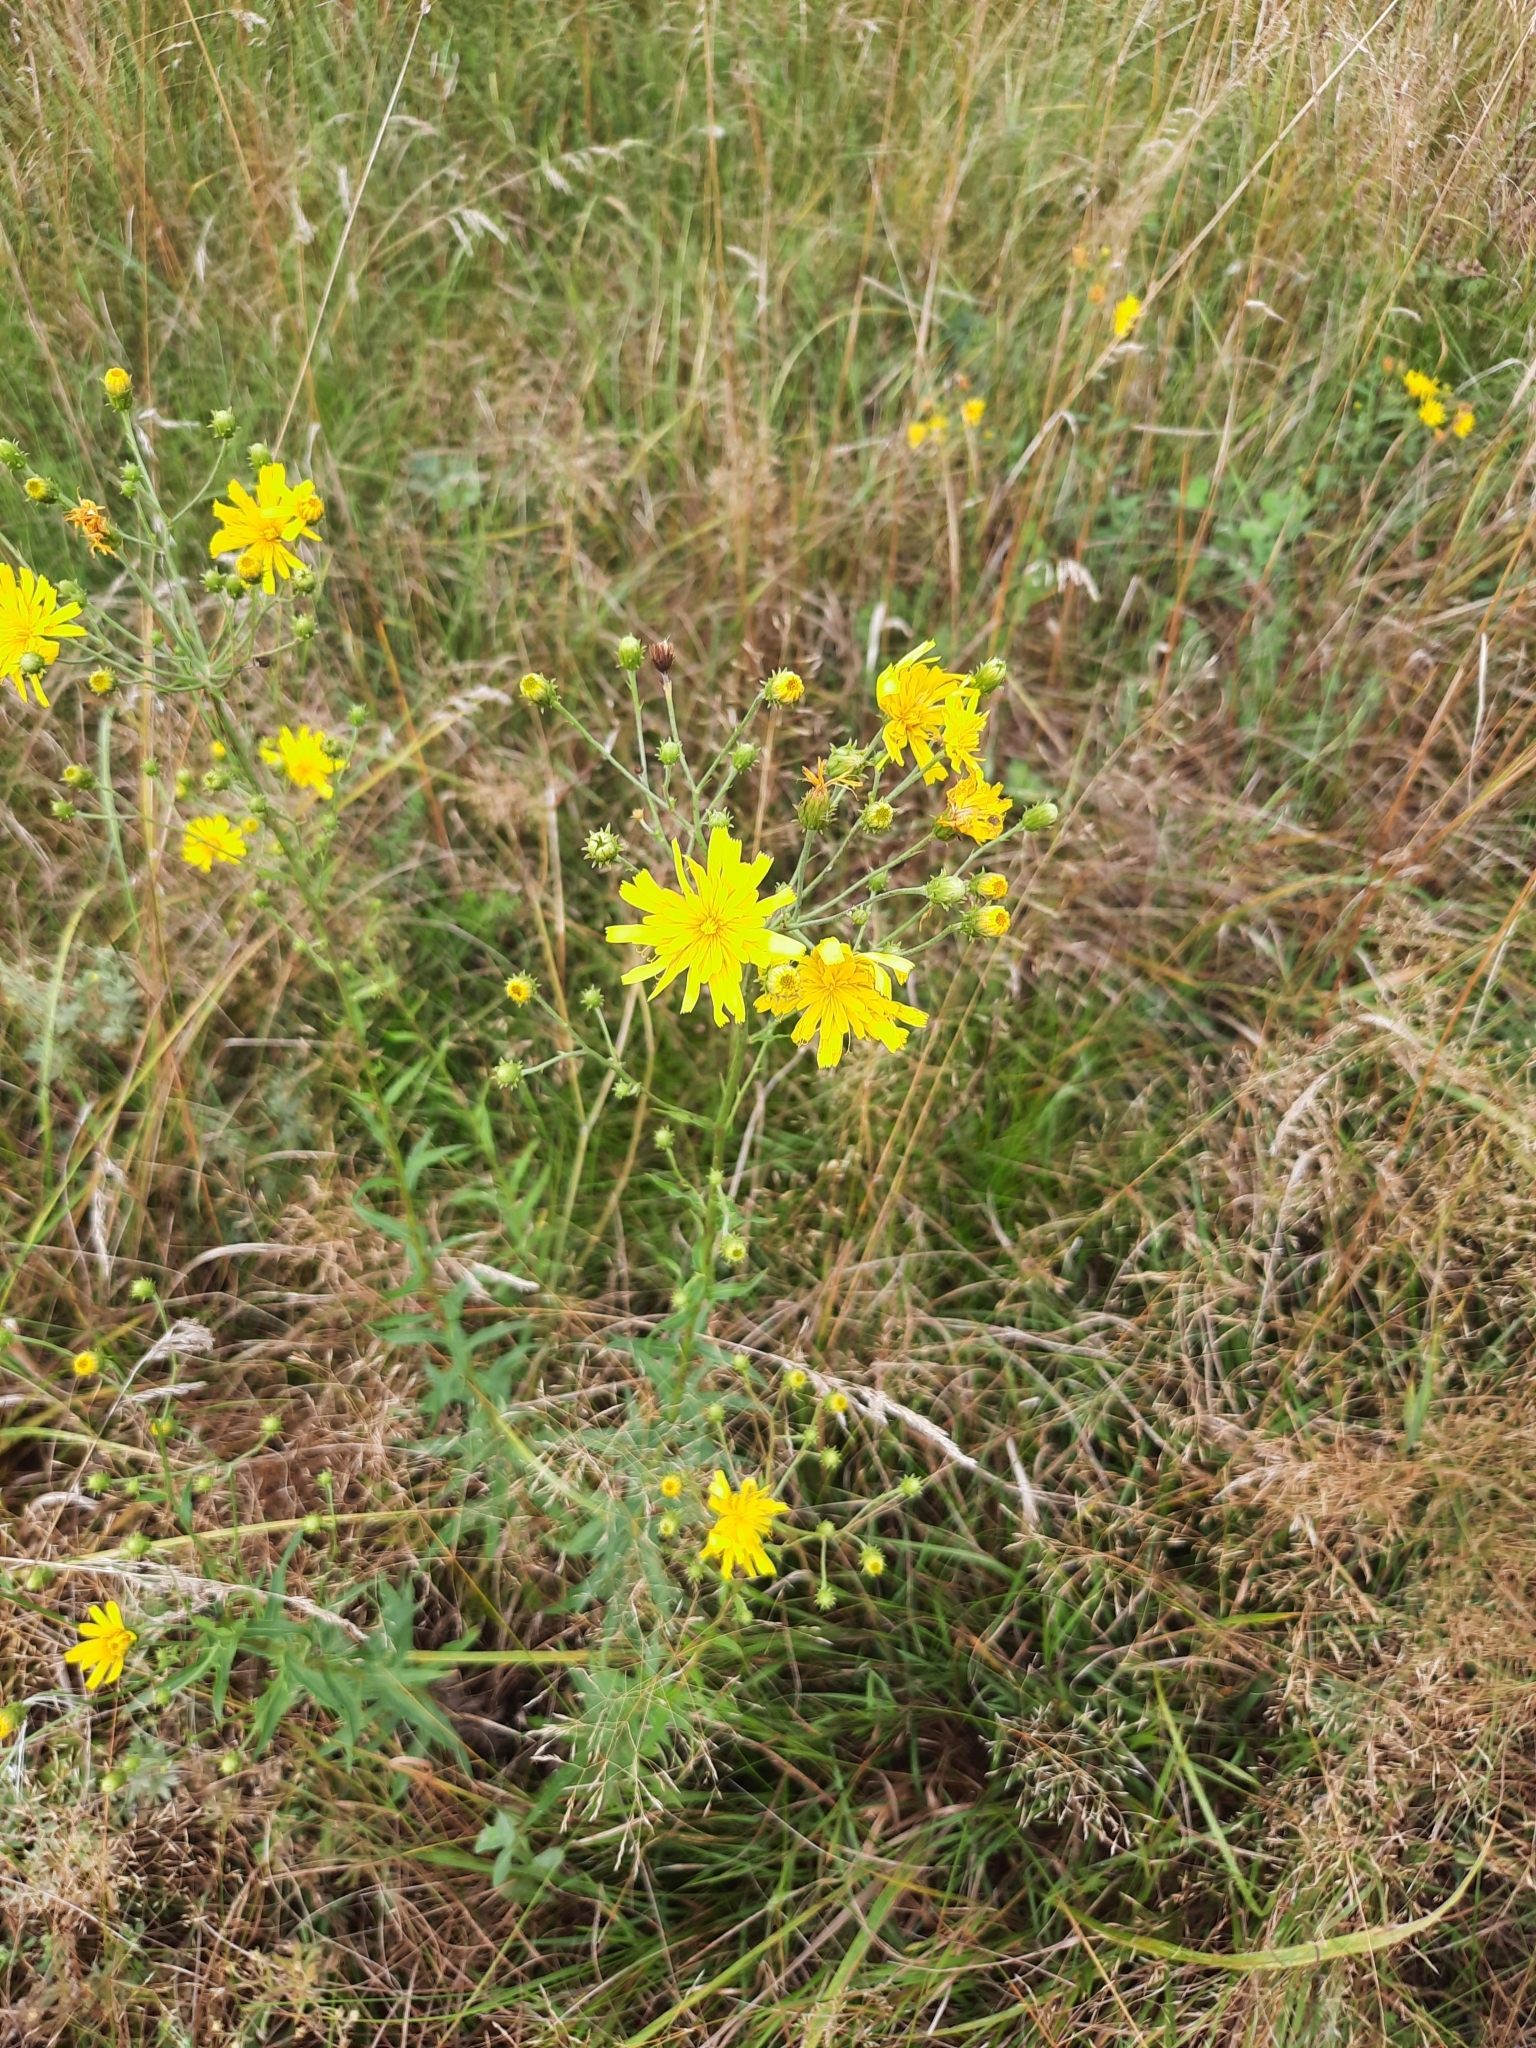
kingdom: Plantae
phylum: Tracheophyta
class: Magnoliopsida
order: Asterales
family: Asteraceae
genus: Hieracium
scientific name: Hieracium umbellatum
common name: Northern hawkweed
